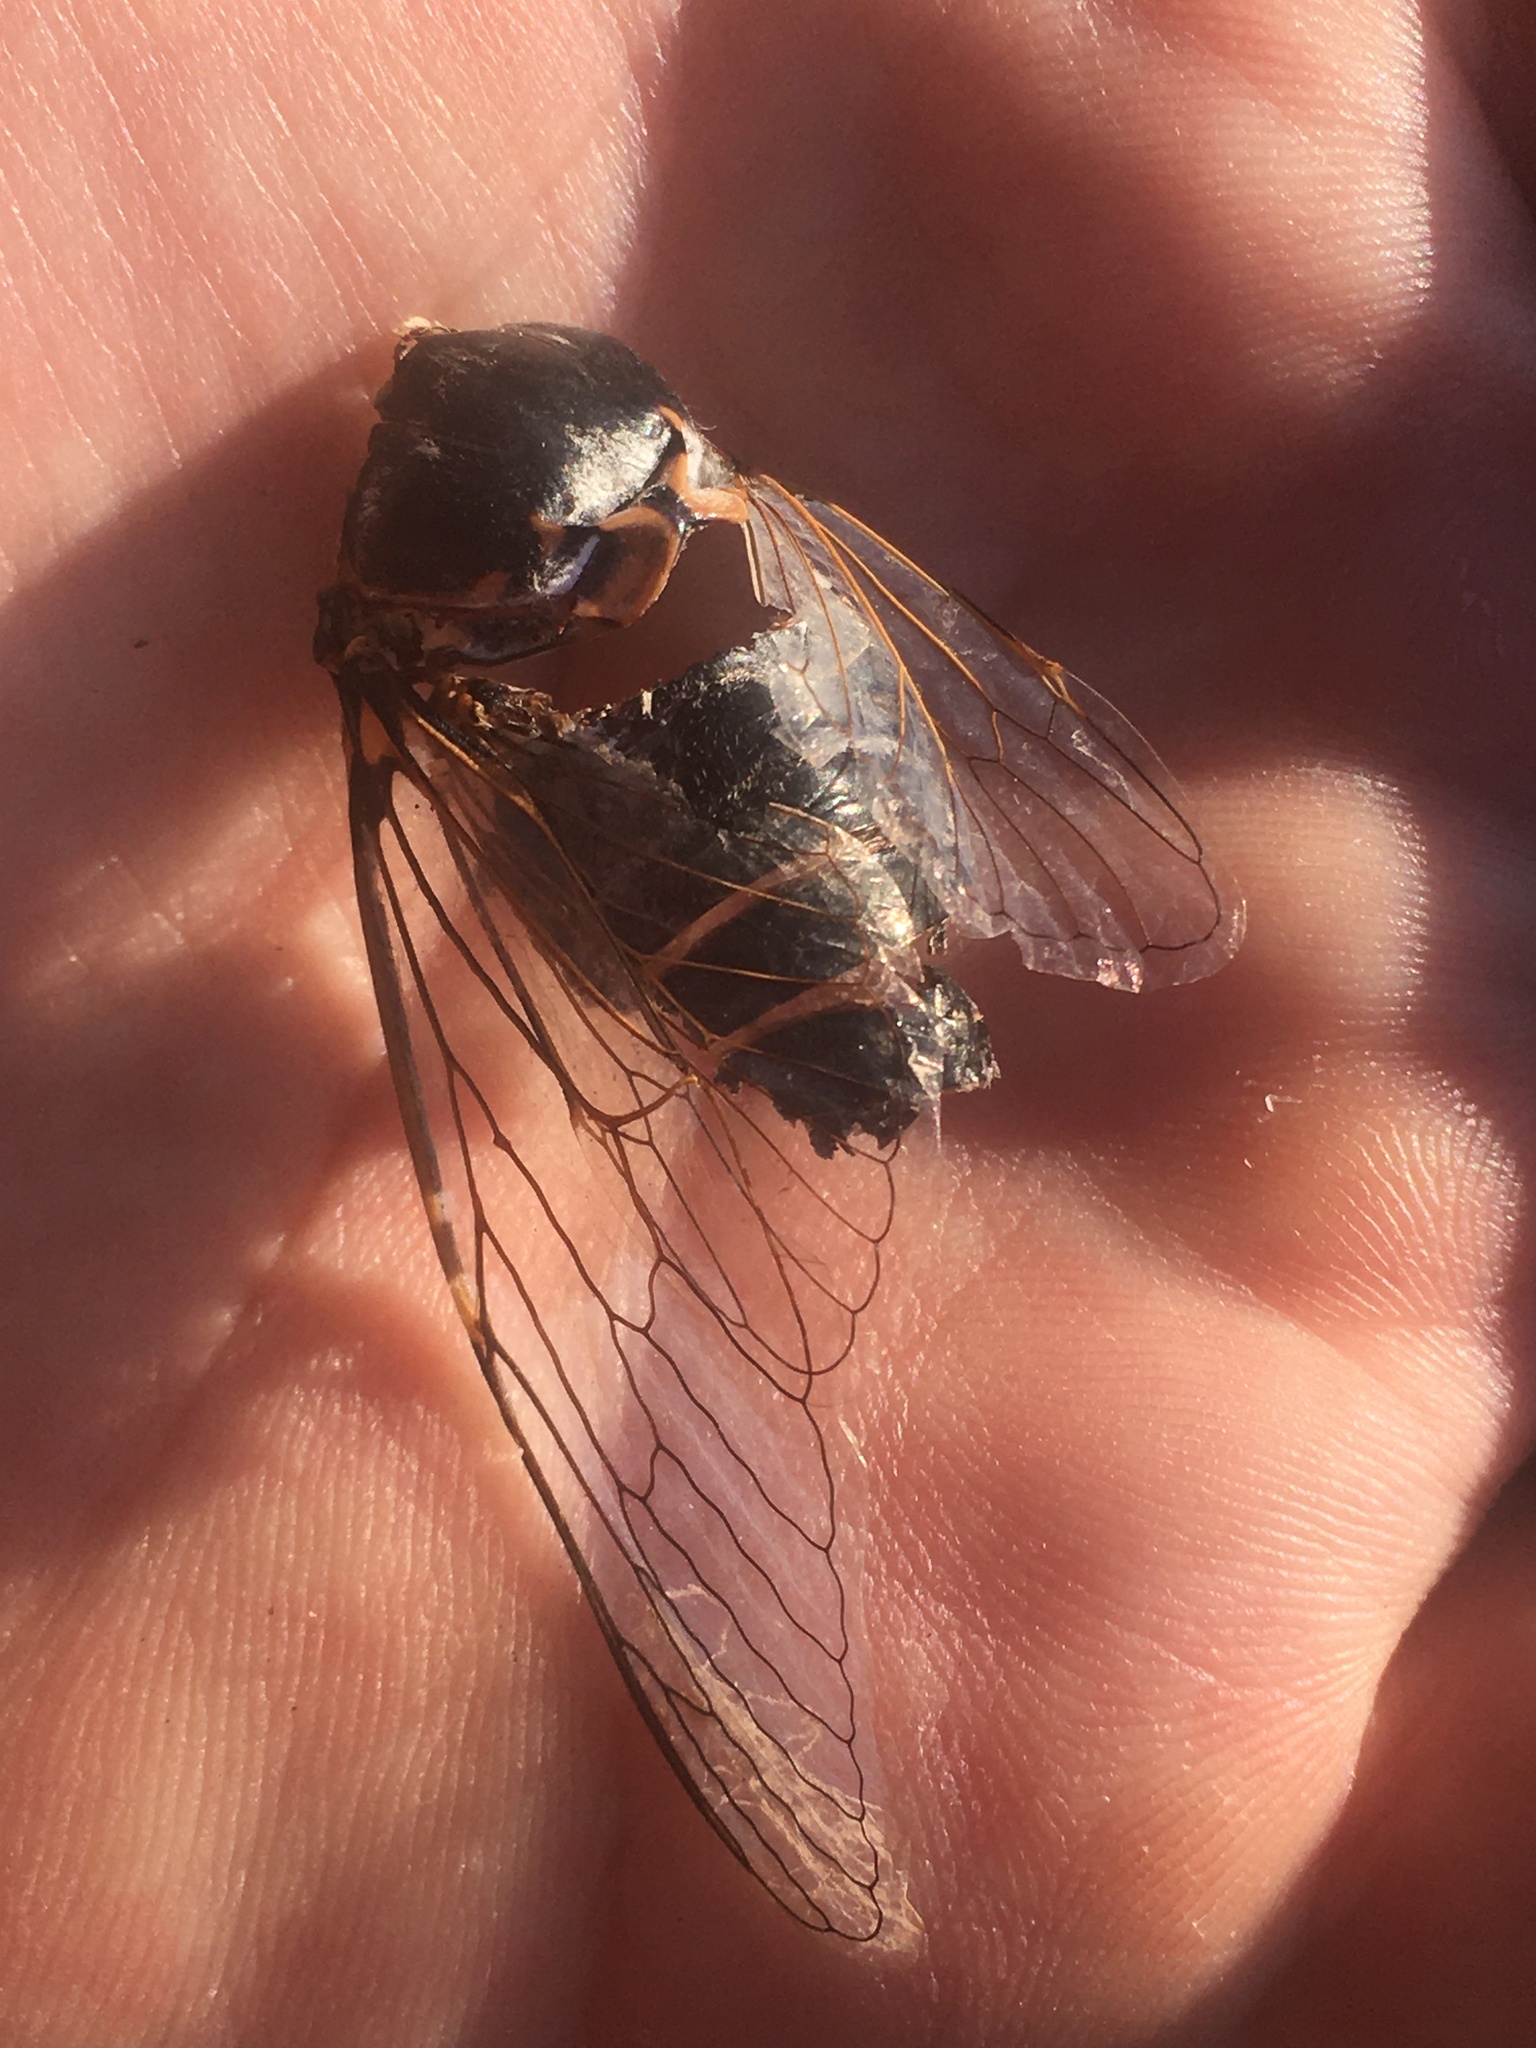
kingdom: Animalia
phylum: Arthropoda
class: Insecta
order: Hemiptera
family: Cicadidae
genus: Lyristes
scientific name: Lyristes plebejus
